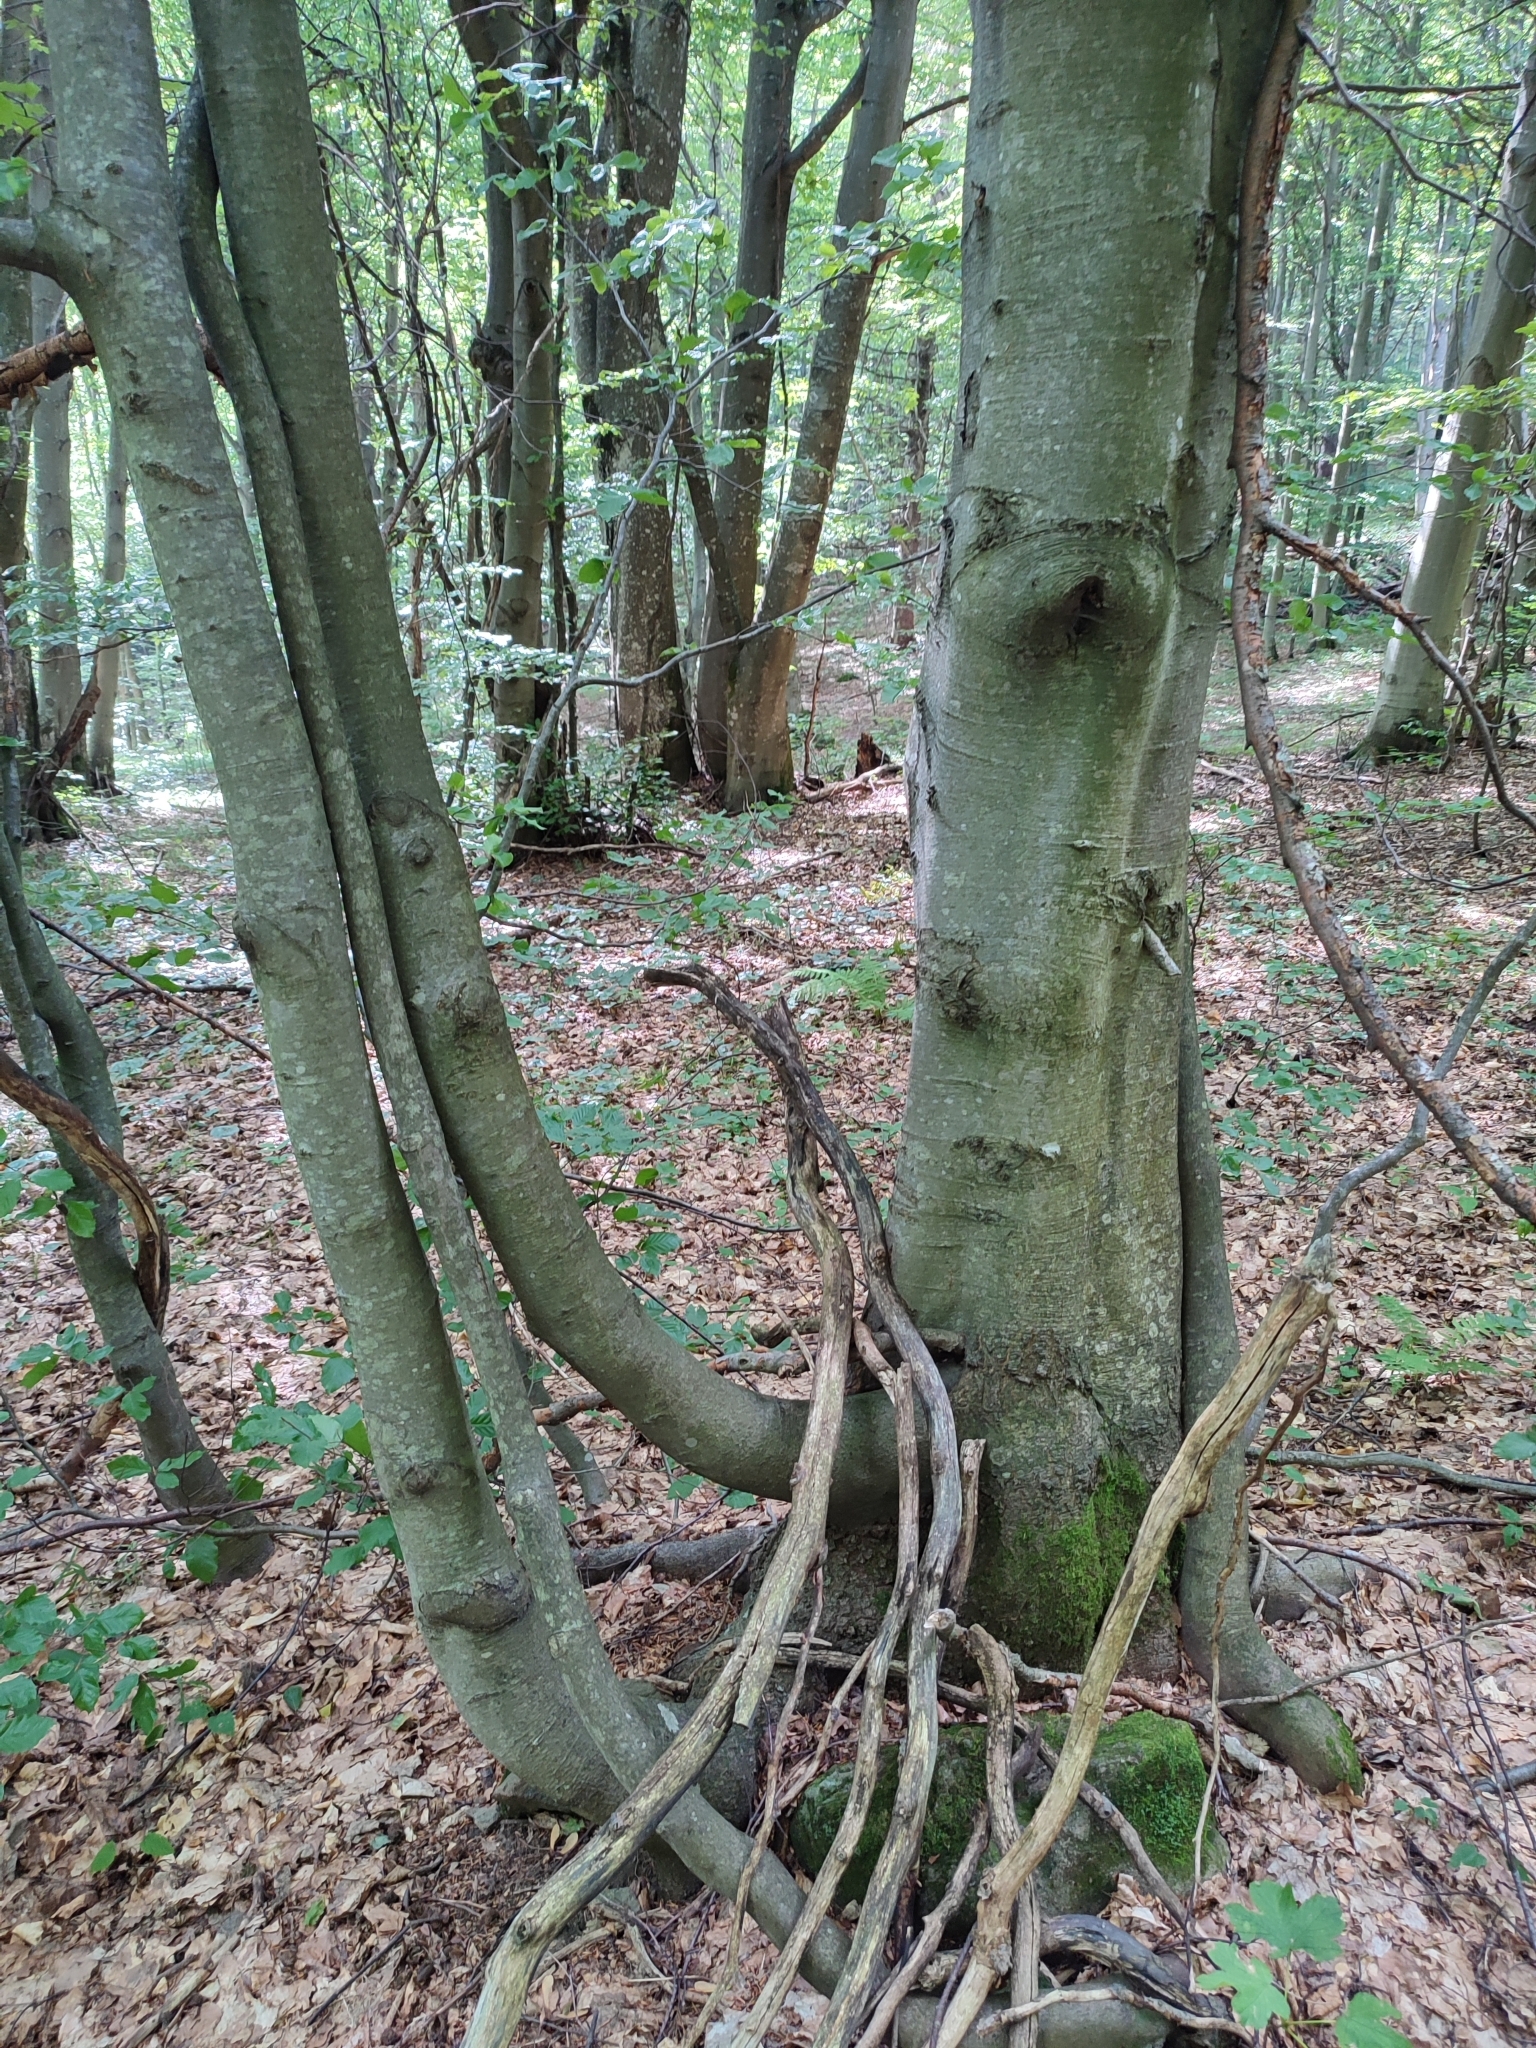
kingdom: Plantae
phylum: Tracheophyta
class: Magnoliopsida
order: Fagales
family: Fagaceae
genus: Fagus
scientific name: Fagus sylvatica
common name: Beech
